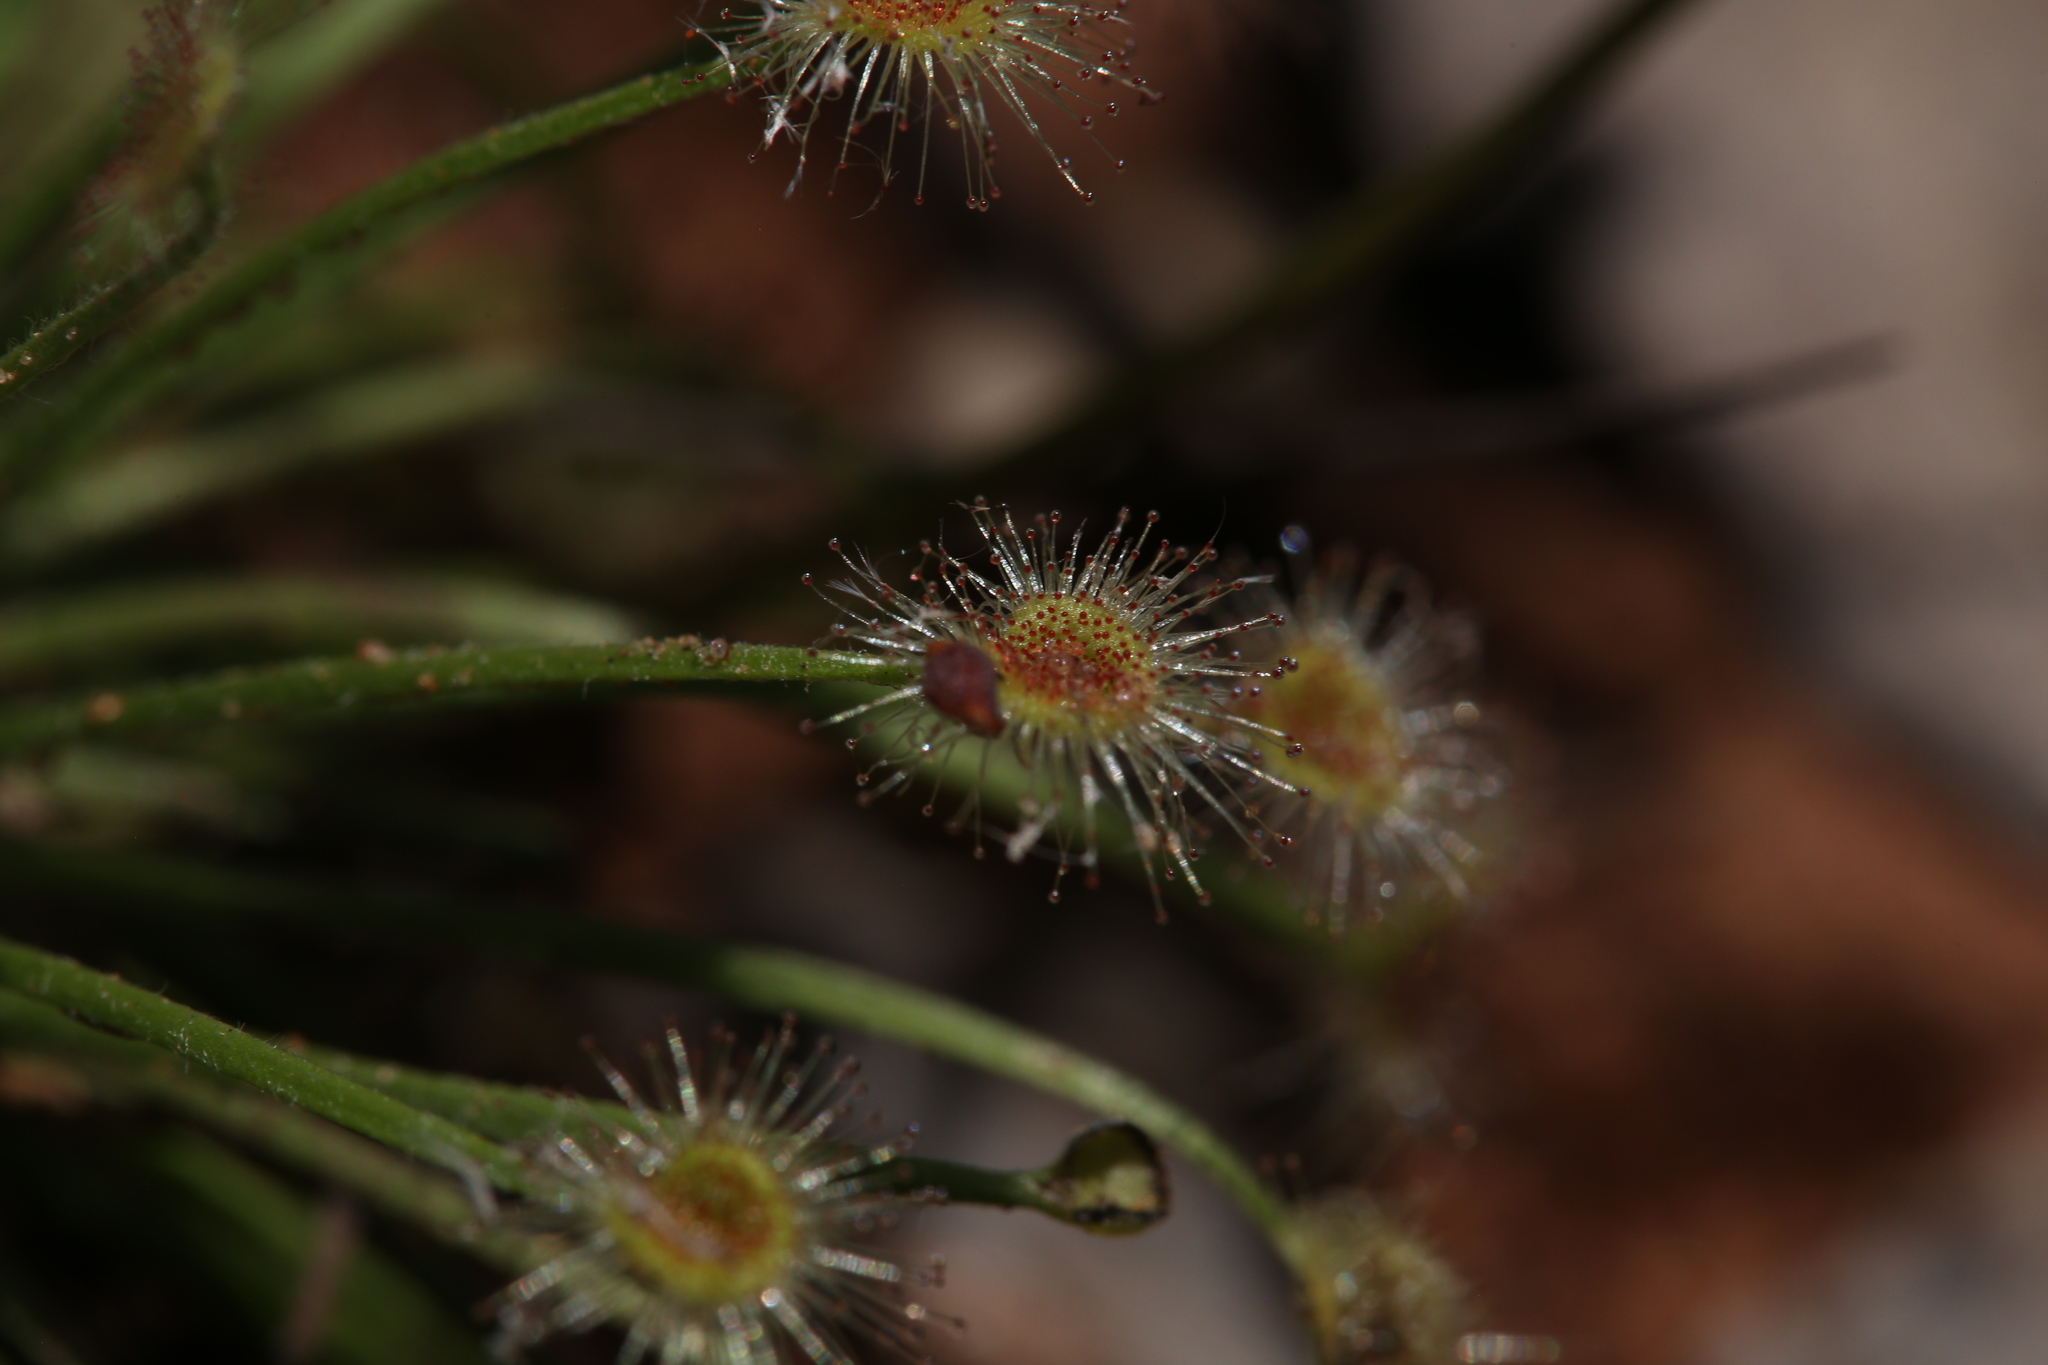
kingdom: Plantae
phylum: Tracheophyta
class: Magnoliopsida
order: Caryophyllales
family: Droseraceae
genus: Drosera
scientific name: Drosera broomensis
